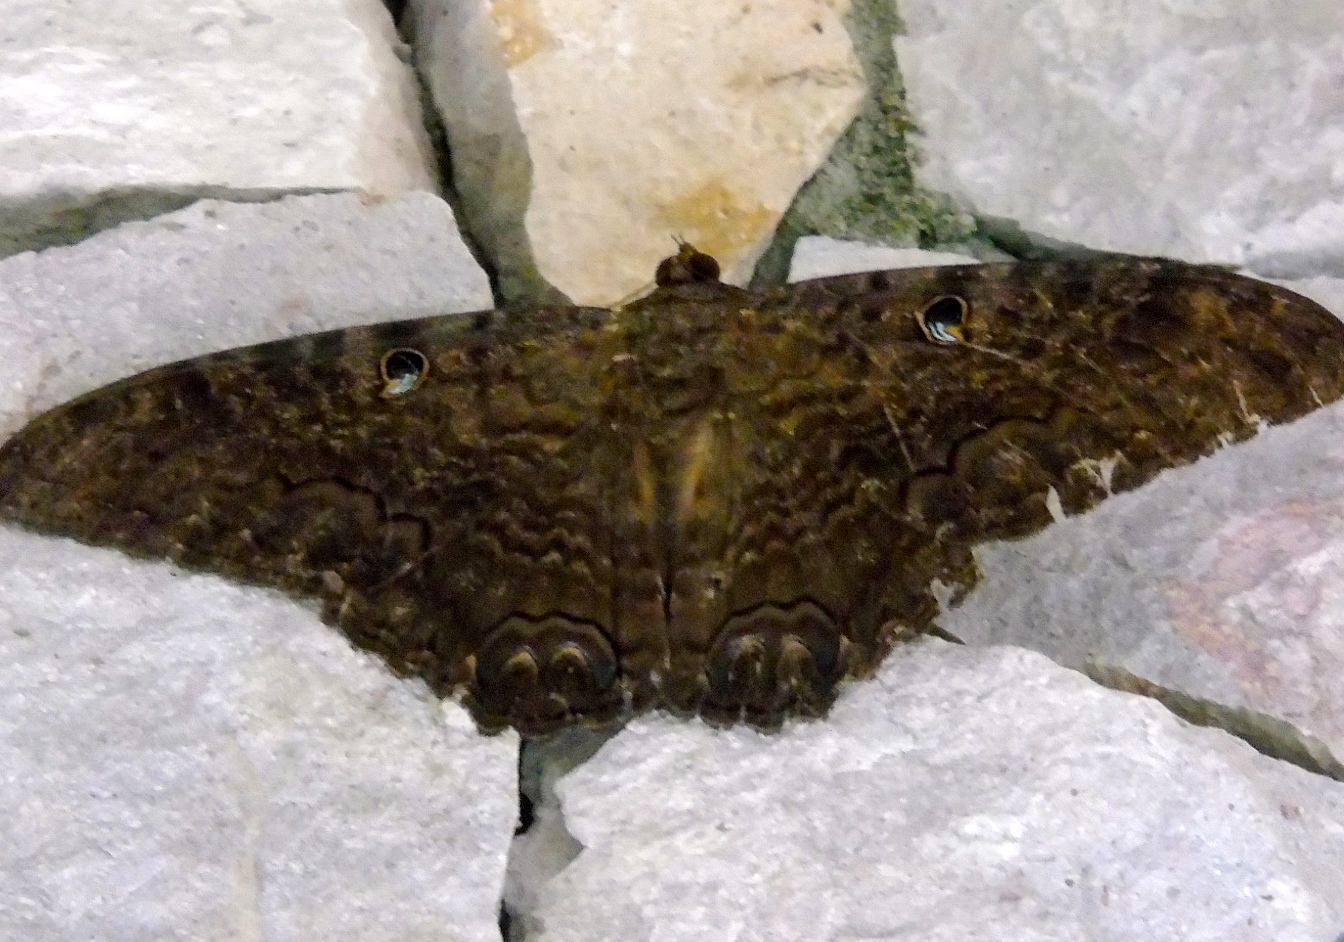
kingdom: Animalia
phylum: Arthropoda
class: Insecta
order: Lepidoptera
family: Erebidae
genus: Ascalapha
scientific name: Ascalapha odorata
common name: Black witch
